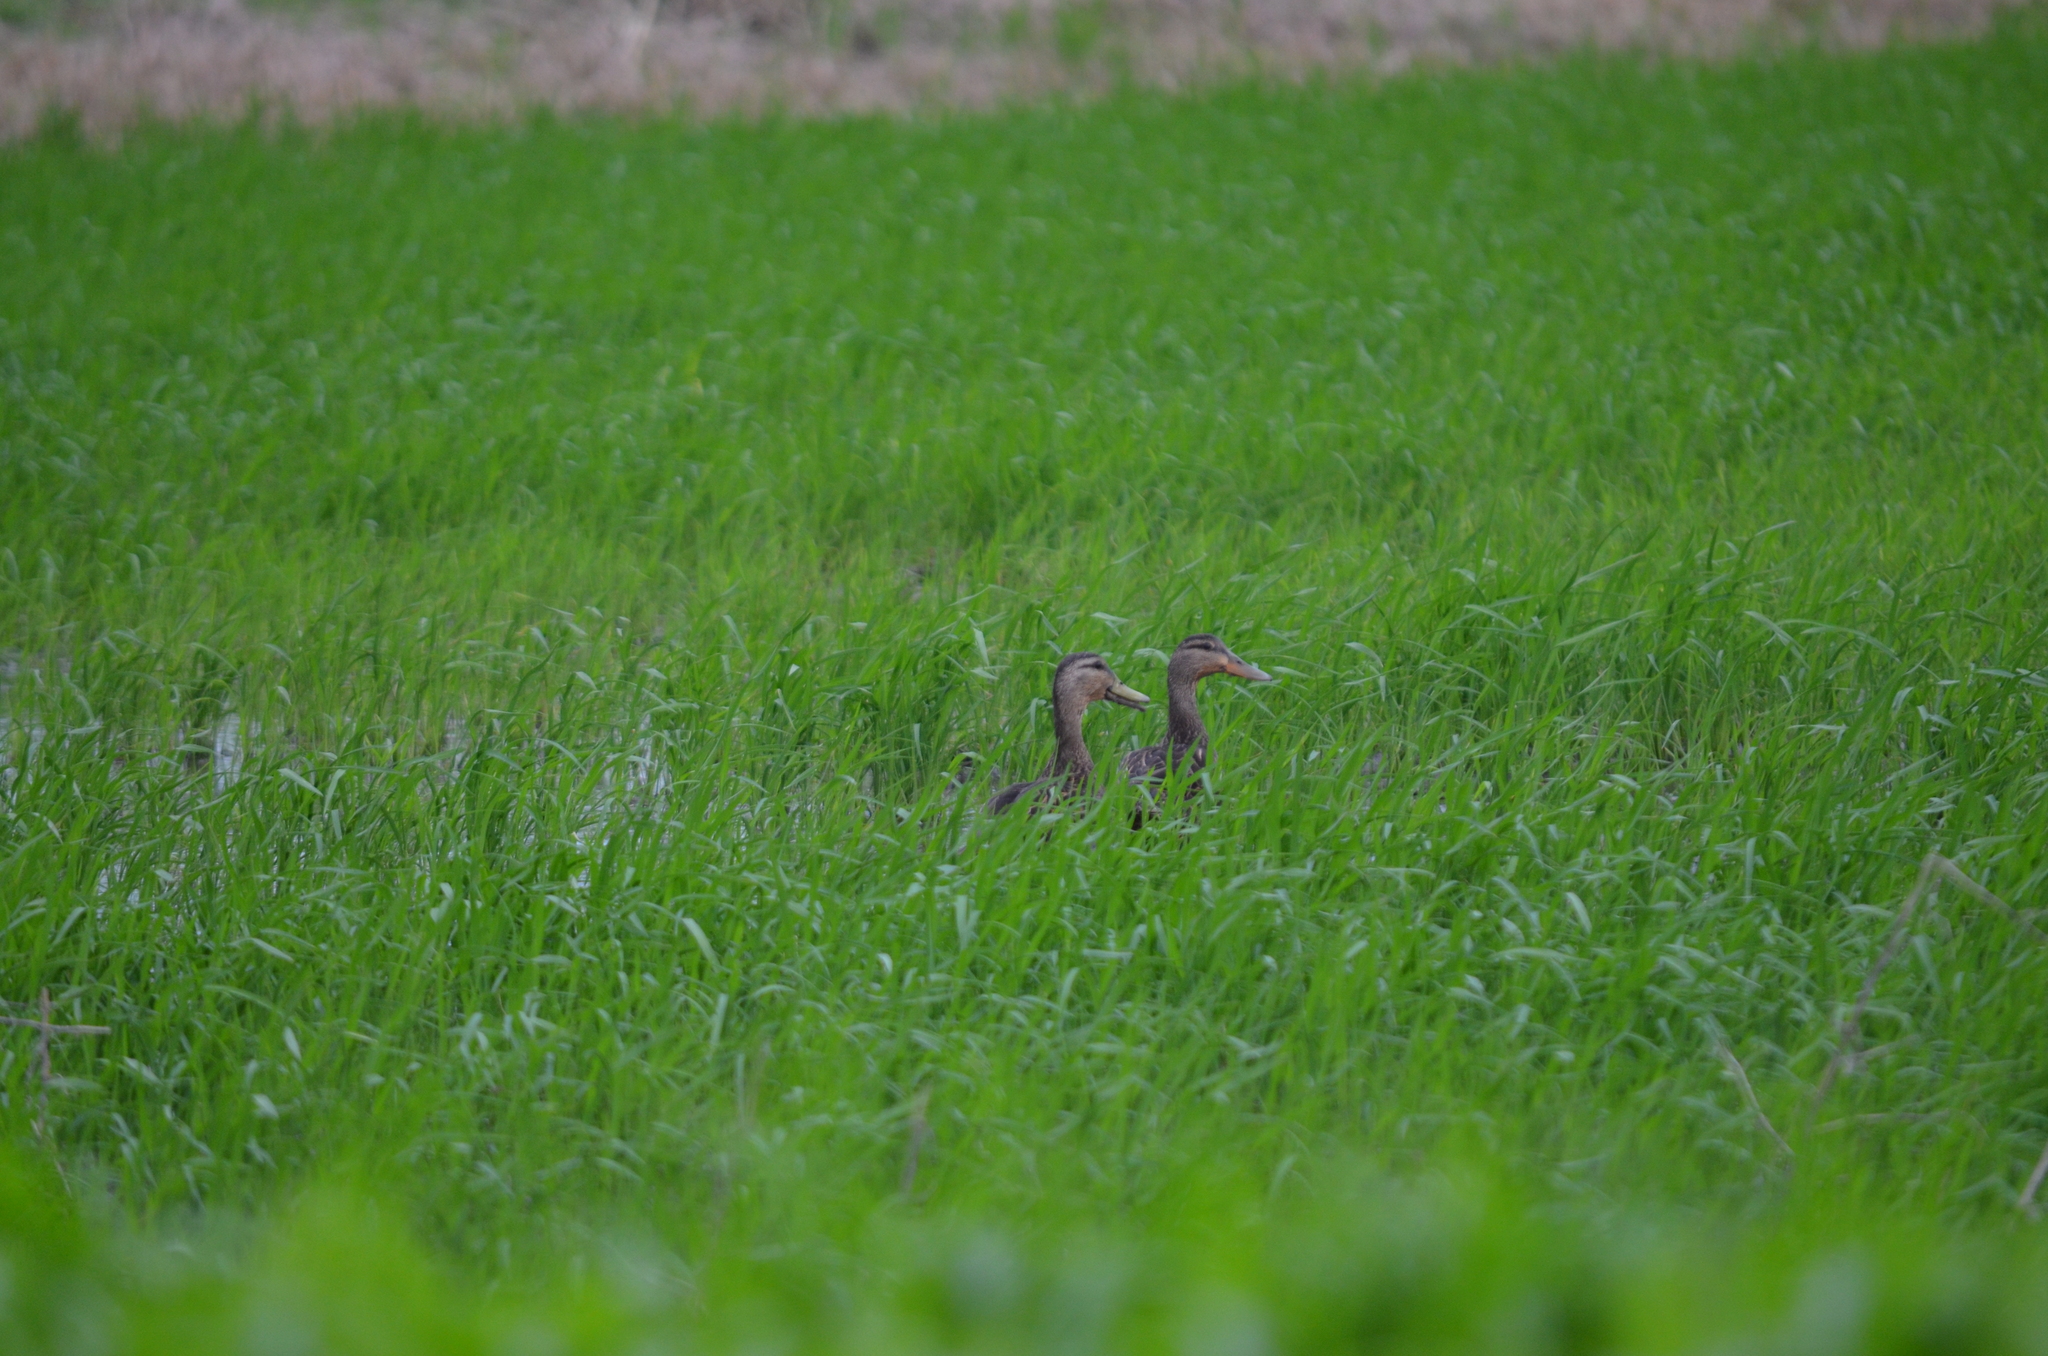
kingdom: Animalia
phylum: Chordata
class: Aves
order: Anseriformes
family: Anatidae
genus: Anas
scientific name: Anas fulvigula
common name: Mottled duck
